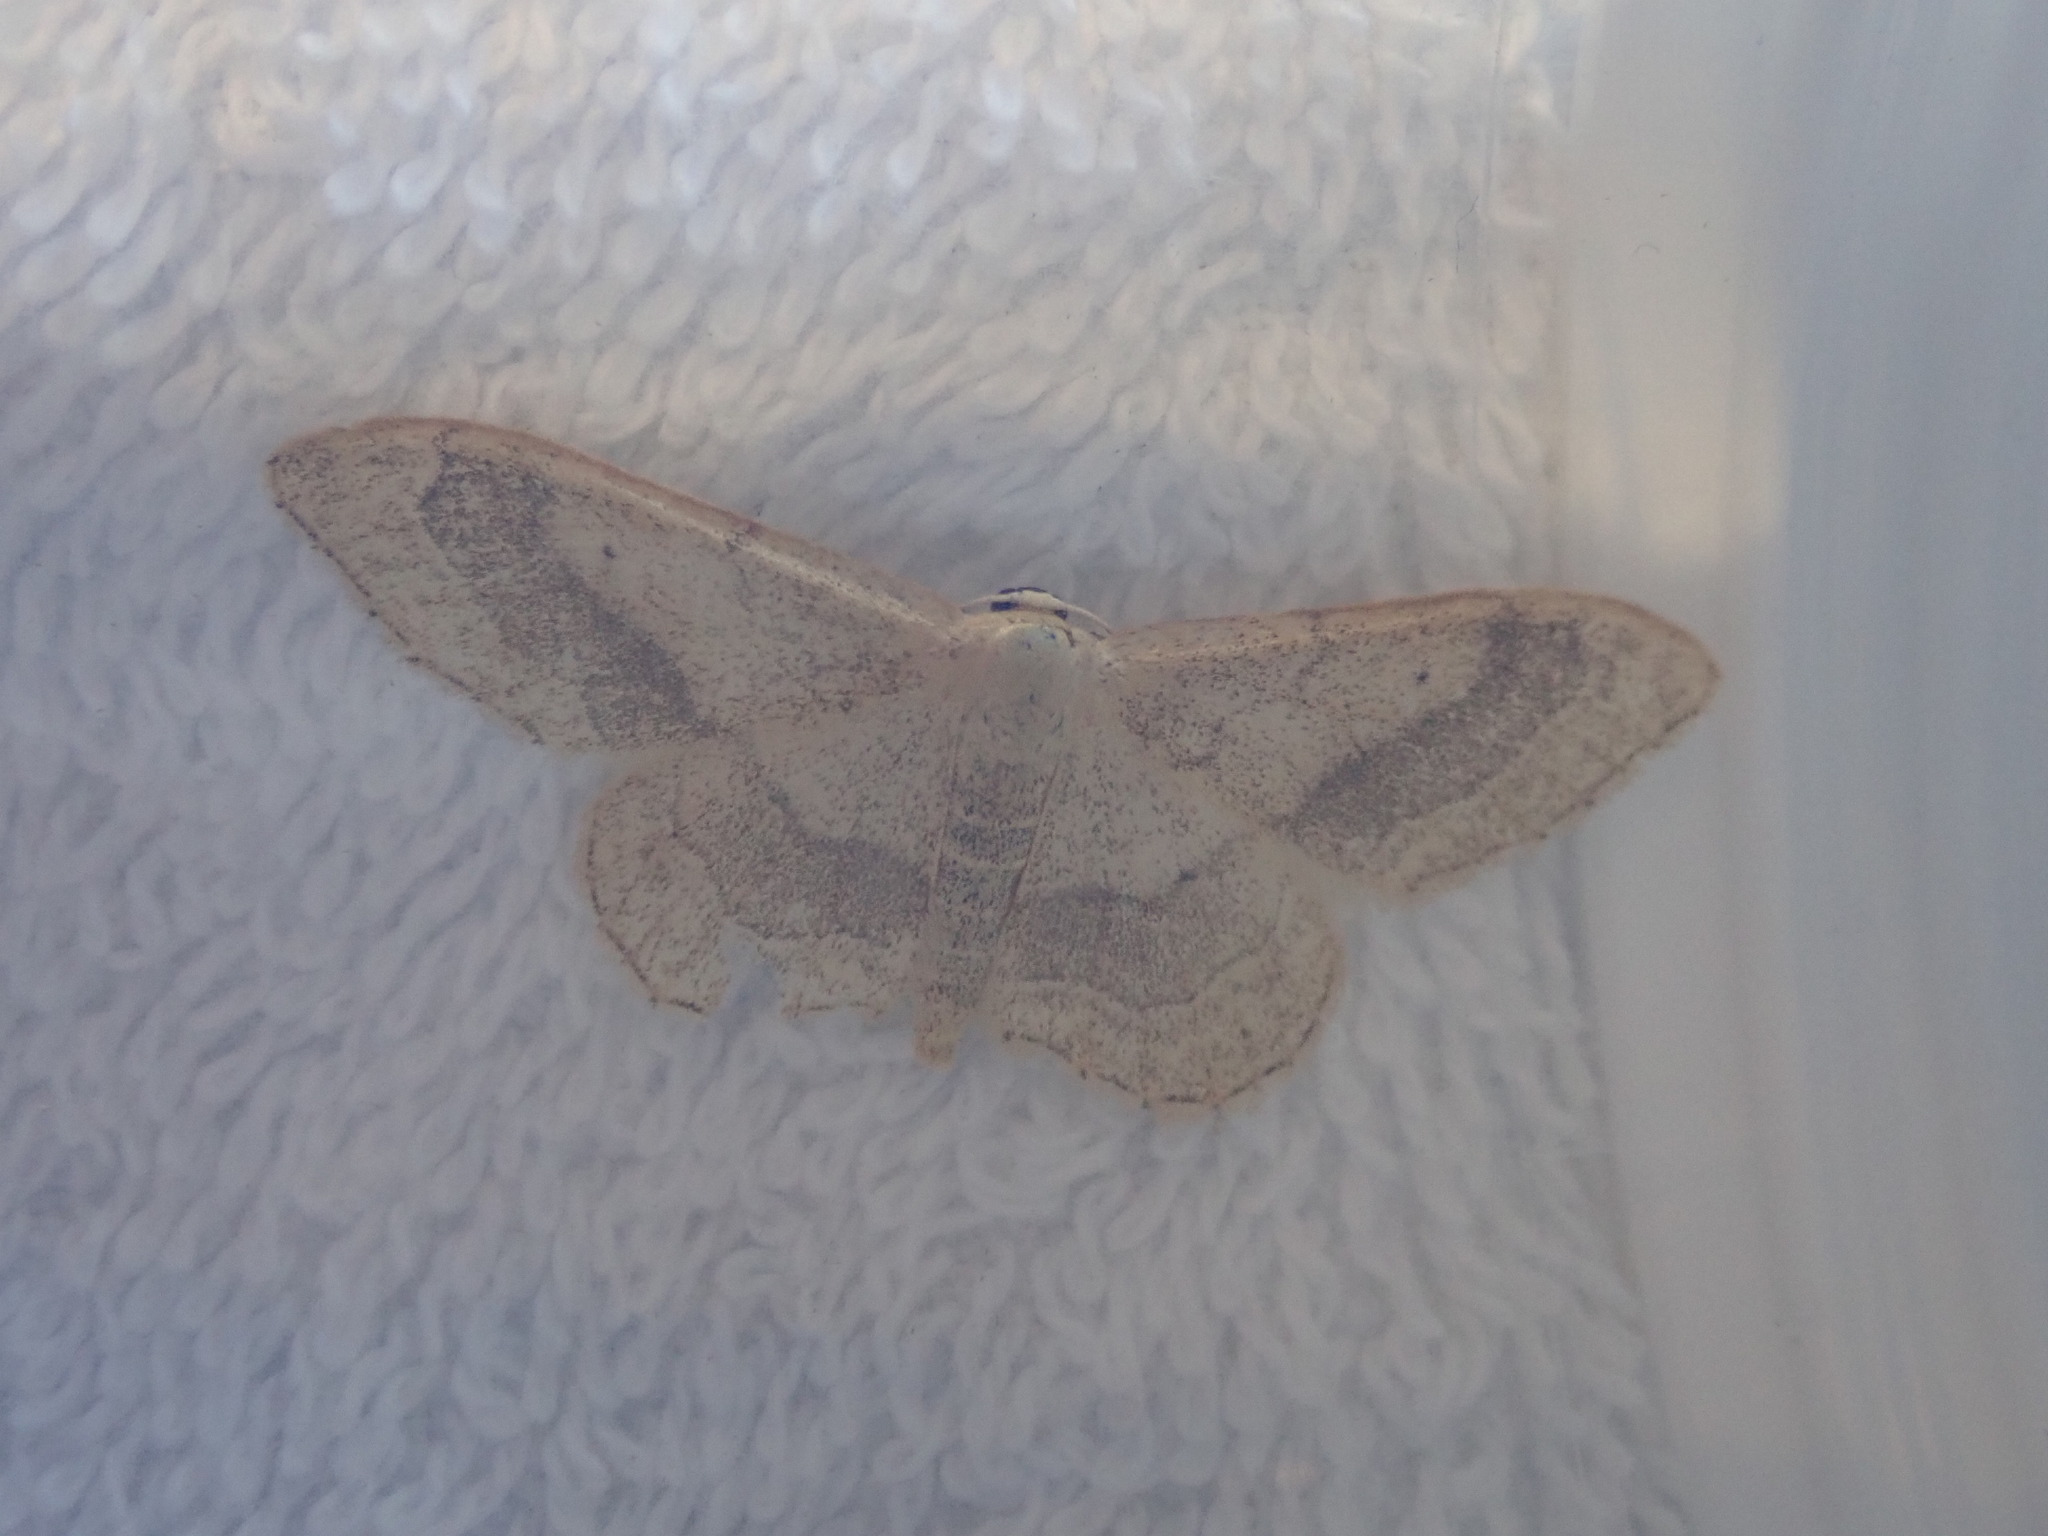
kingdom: Animalia
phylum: Arthropoda
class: Insecta
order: Lepidoptera
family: Geometridae
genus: Idaea
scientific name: Idaea aversata
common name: Riband wave
